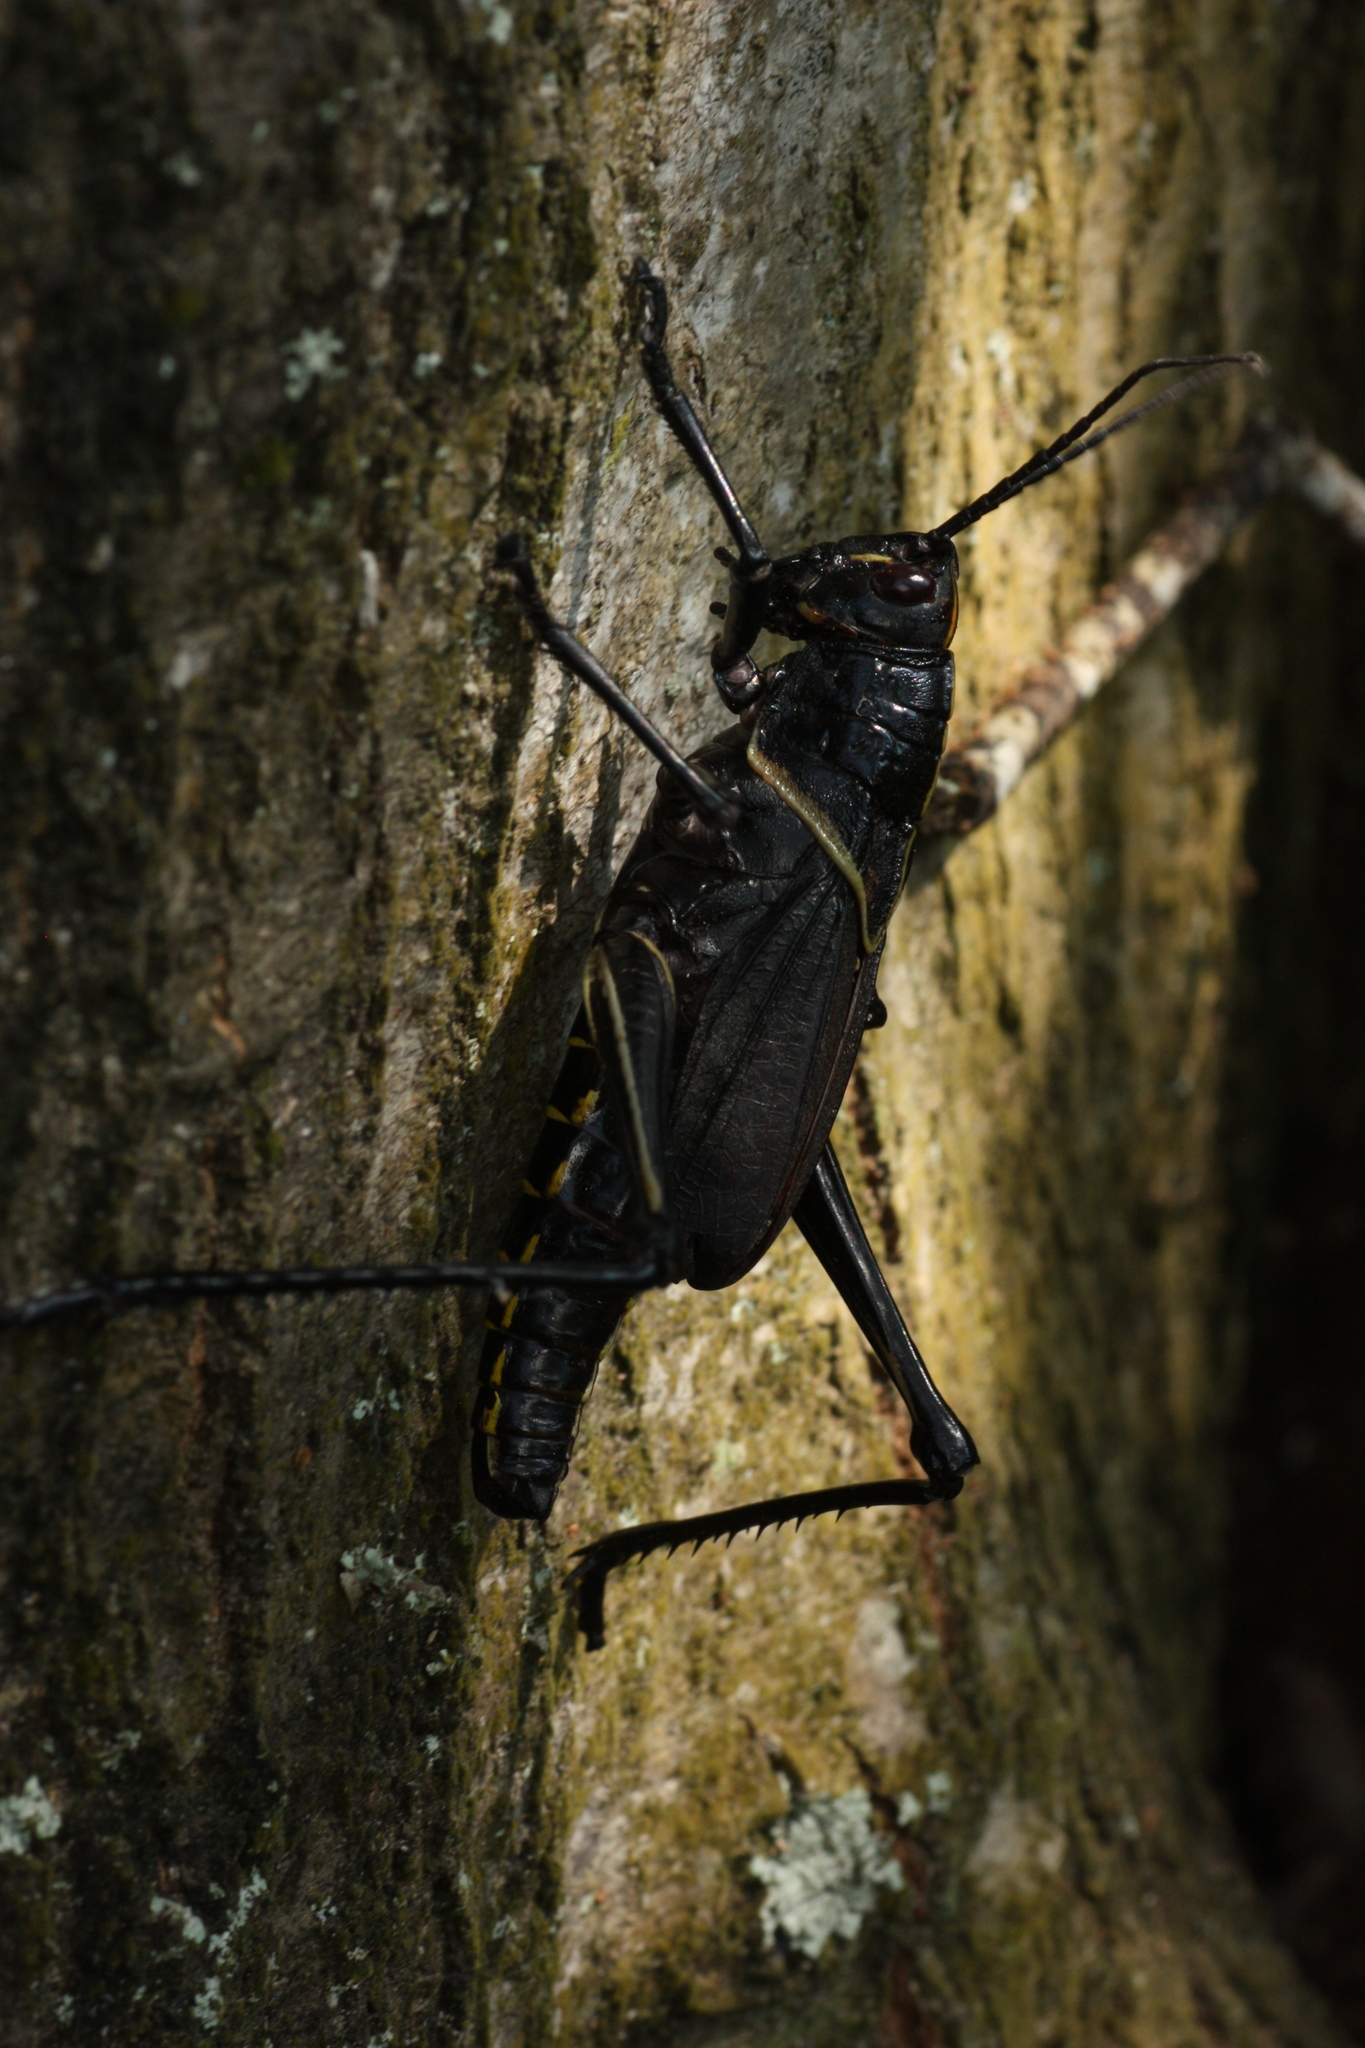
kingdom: Animalia
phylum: Arthropoda
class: Insecta
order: Orthoptera
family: Romaleidae
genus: Romalea
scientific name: Romalea microptera
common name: Eastern lubber grasshopper
